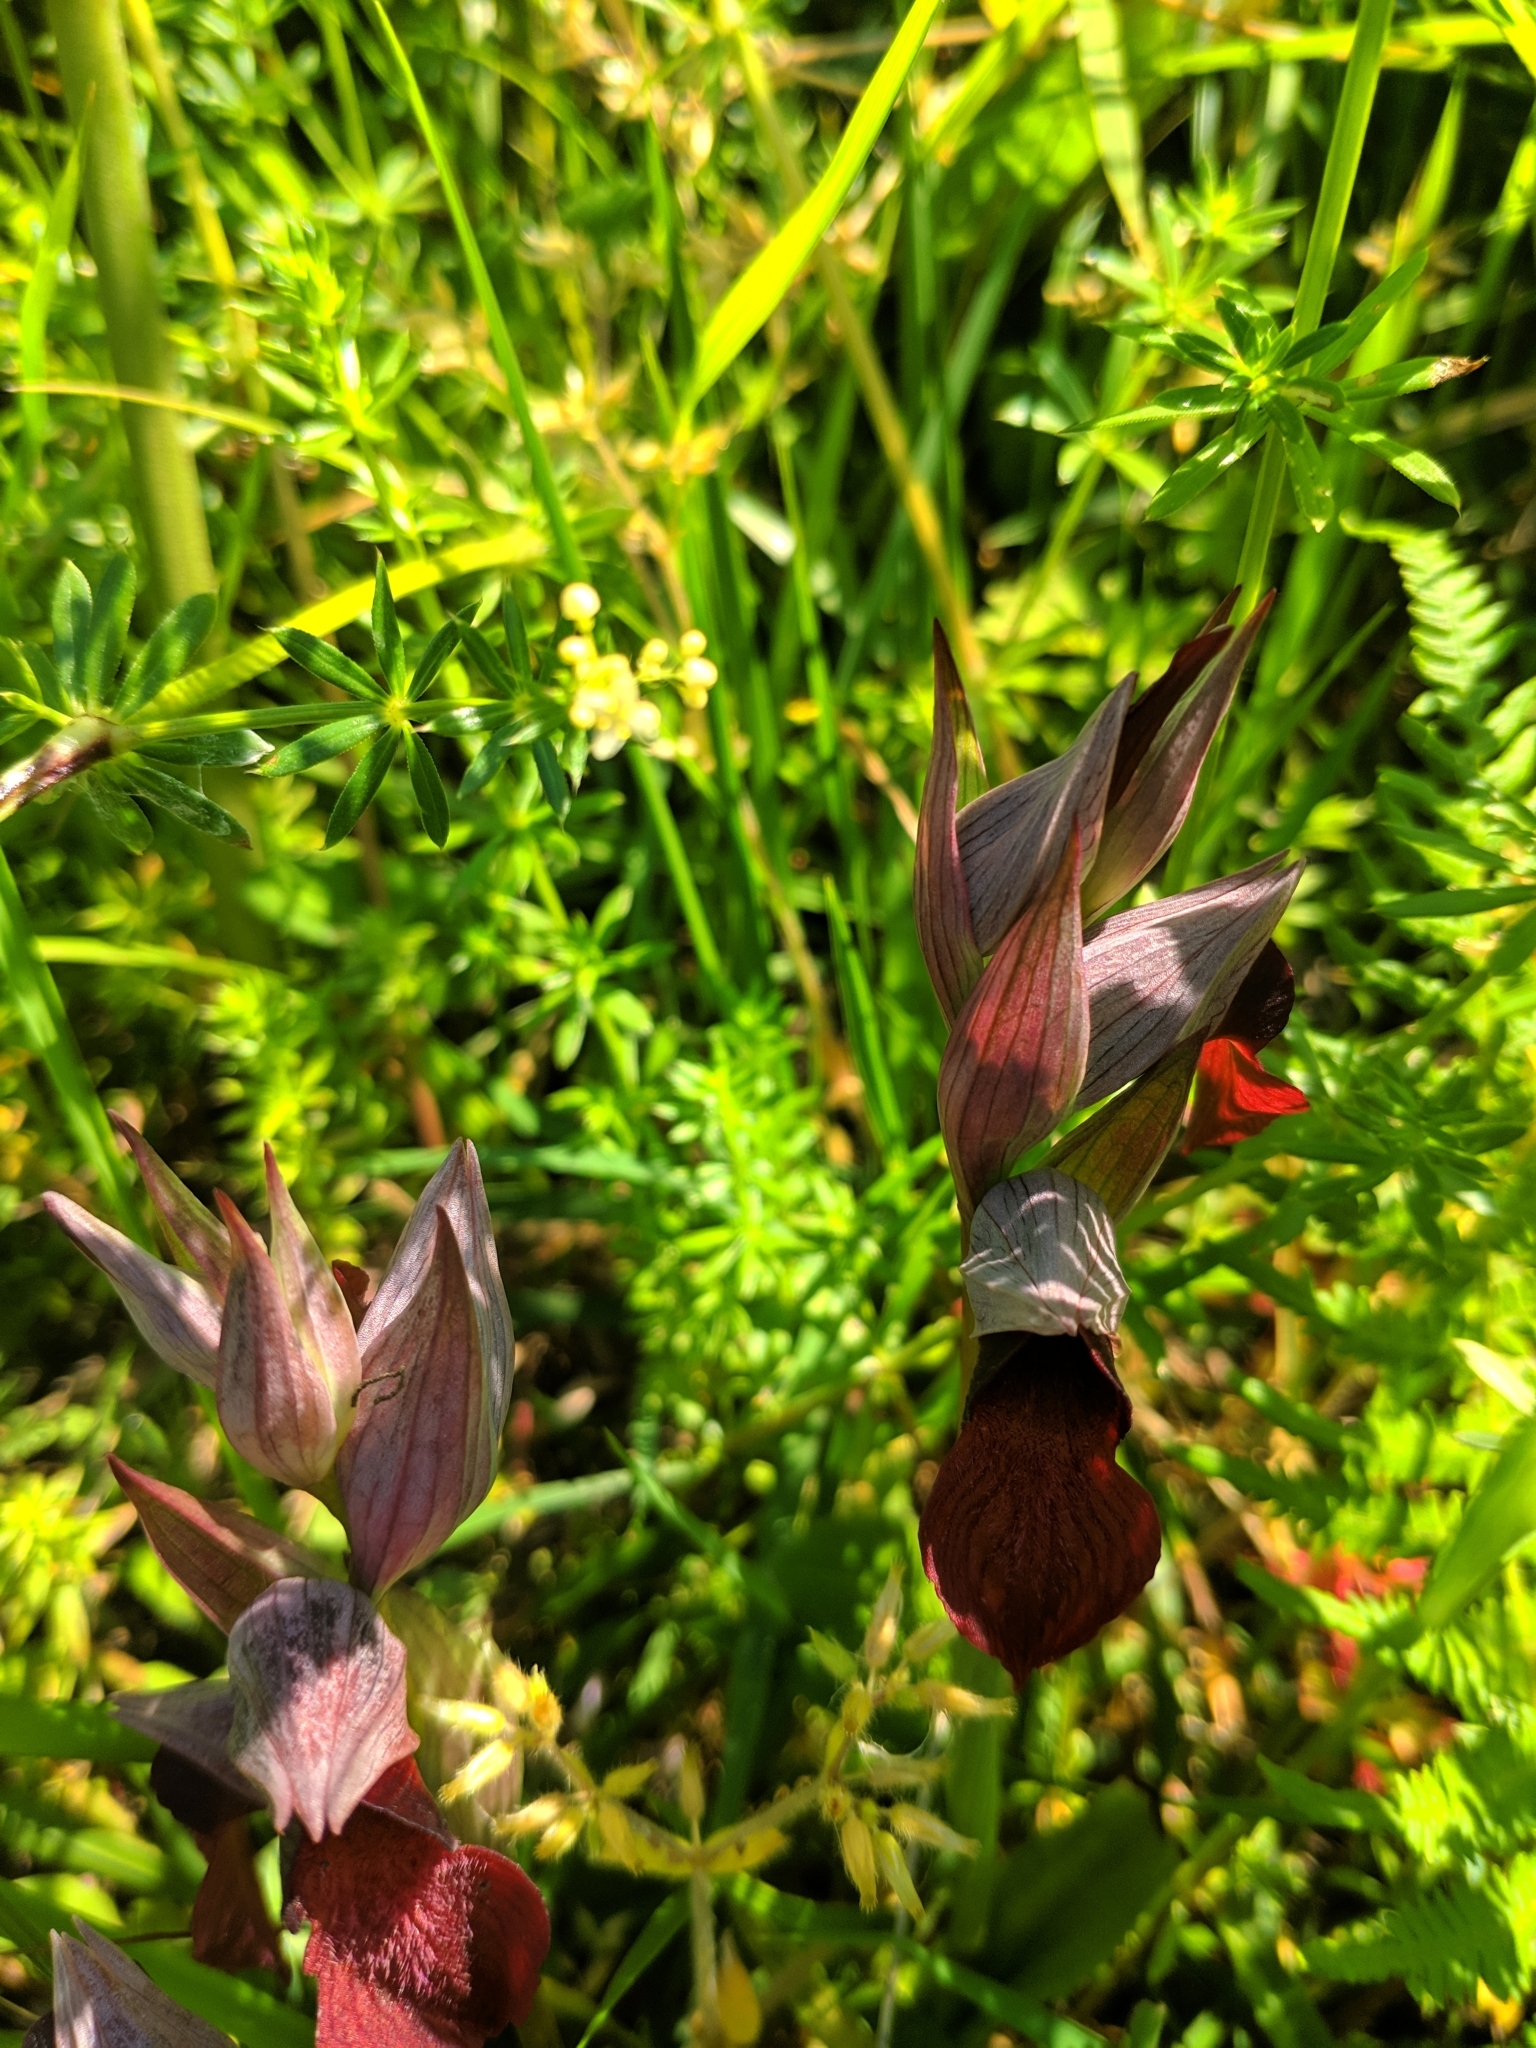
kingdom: Plantae
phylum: Tracheophyta
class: Liliopsida
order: Asparagales
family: Orchidaceae
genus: Serapias
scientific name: Serapias cordigera
